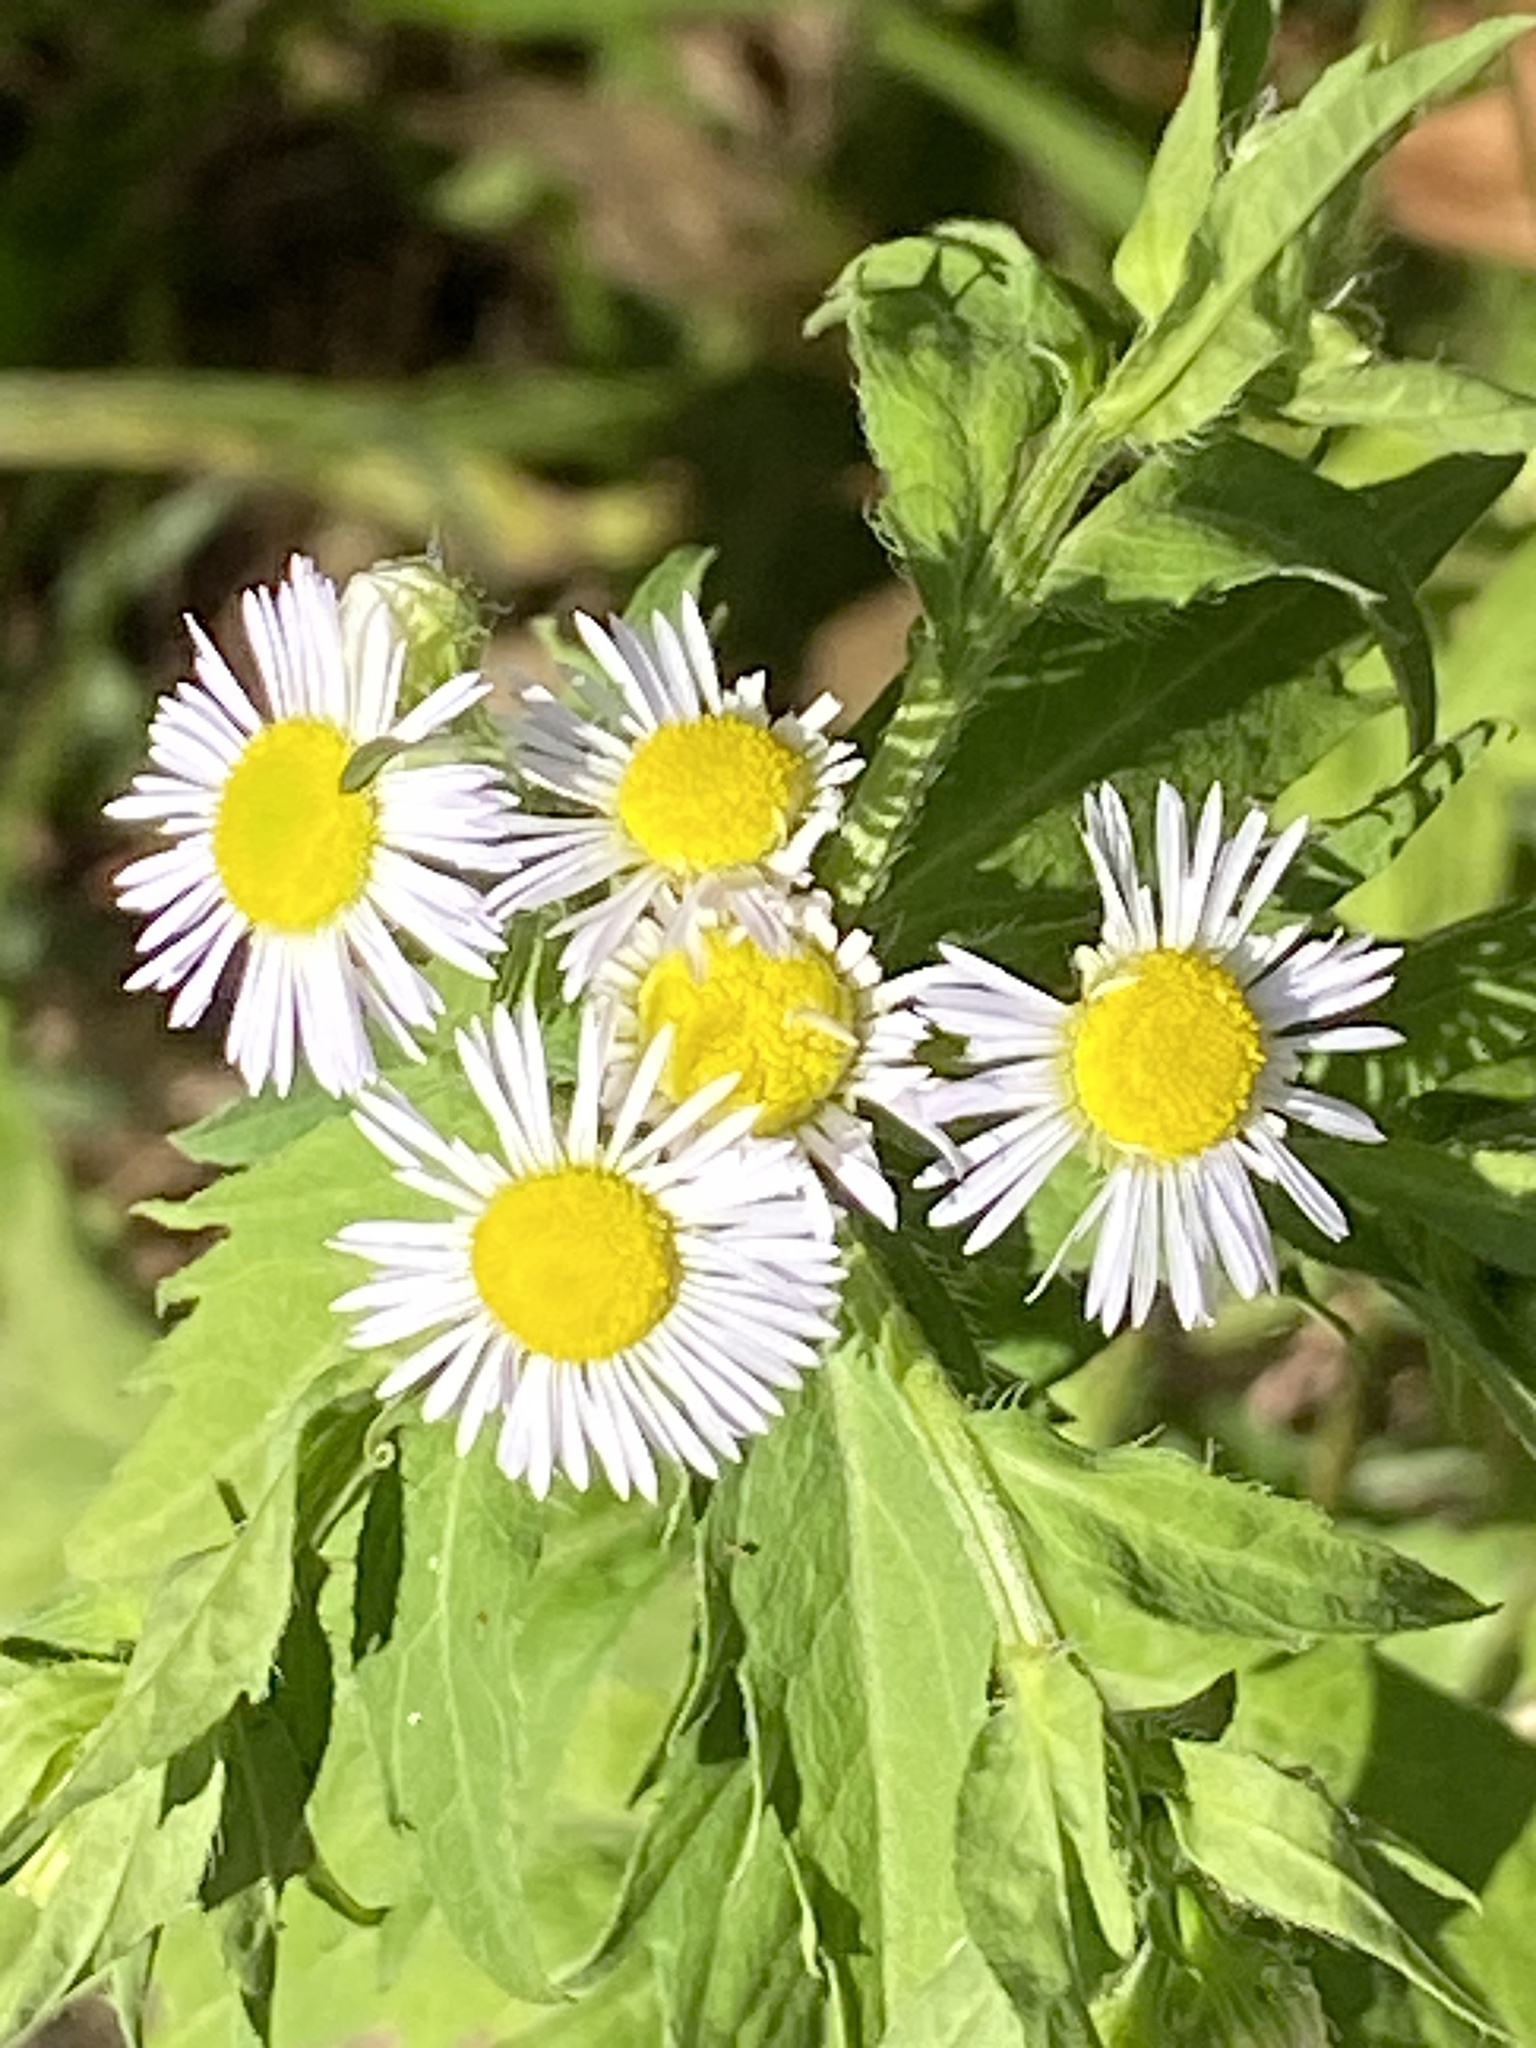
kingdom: Plantae
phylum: Tracheophyta
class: Magnoliopsida
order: Asterales
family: Asteraceae
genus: Erigeron
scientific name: Erigeron annuus
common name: Tall fleabane
